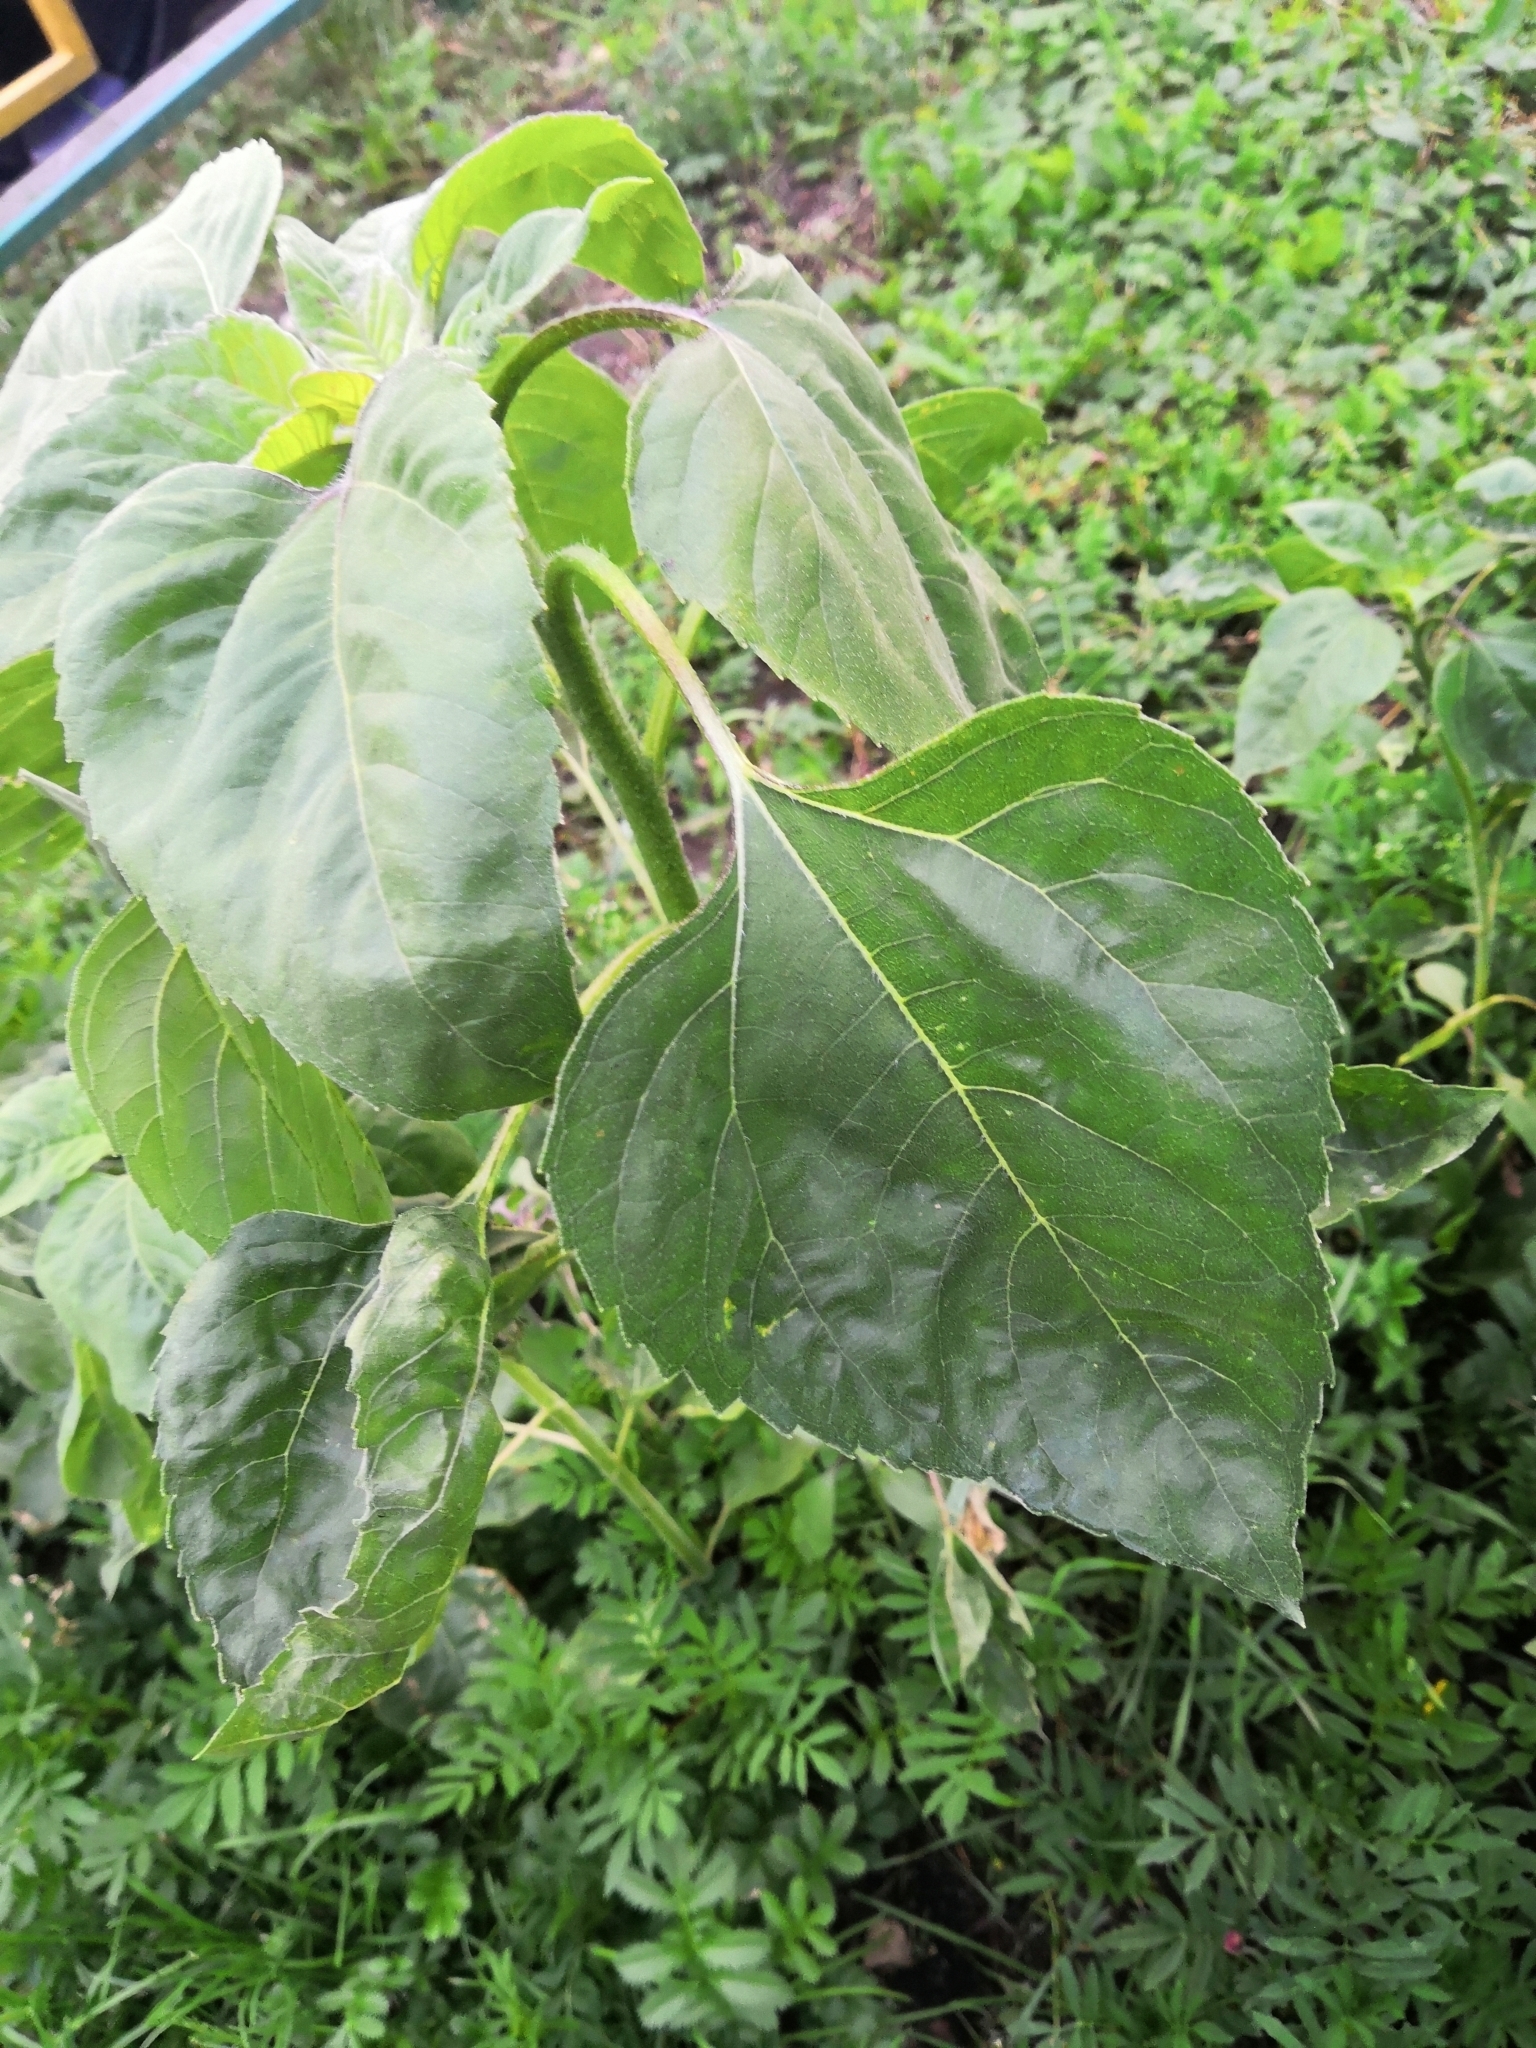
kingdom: Plantae
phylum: Tracheophyta
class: Magnoliopsida
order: Asterales
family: Asteraceae
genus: Helianthus
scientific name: Helianthus annuus
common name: Sunflower
